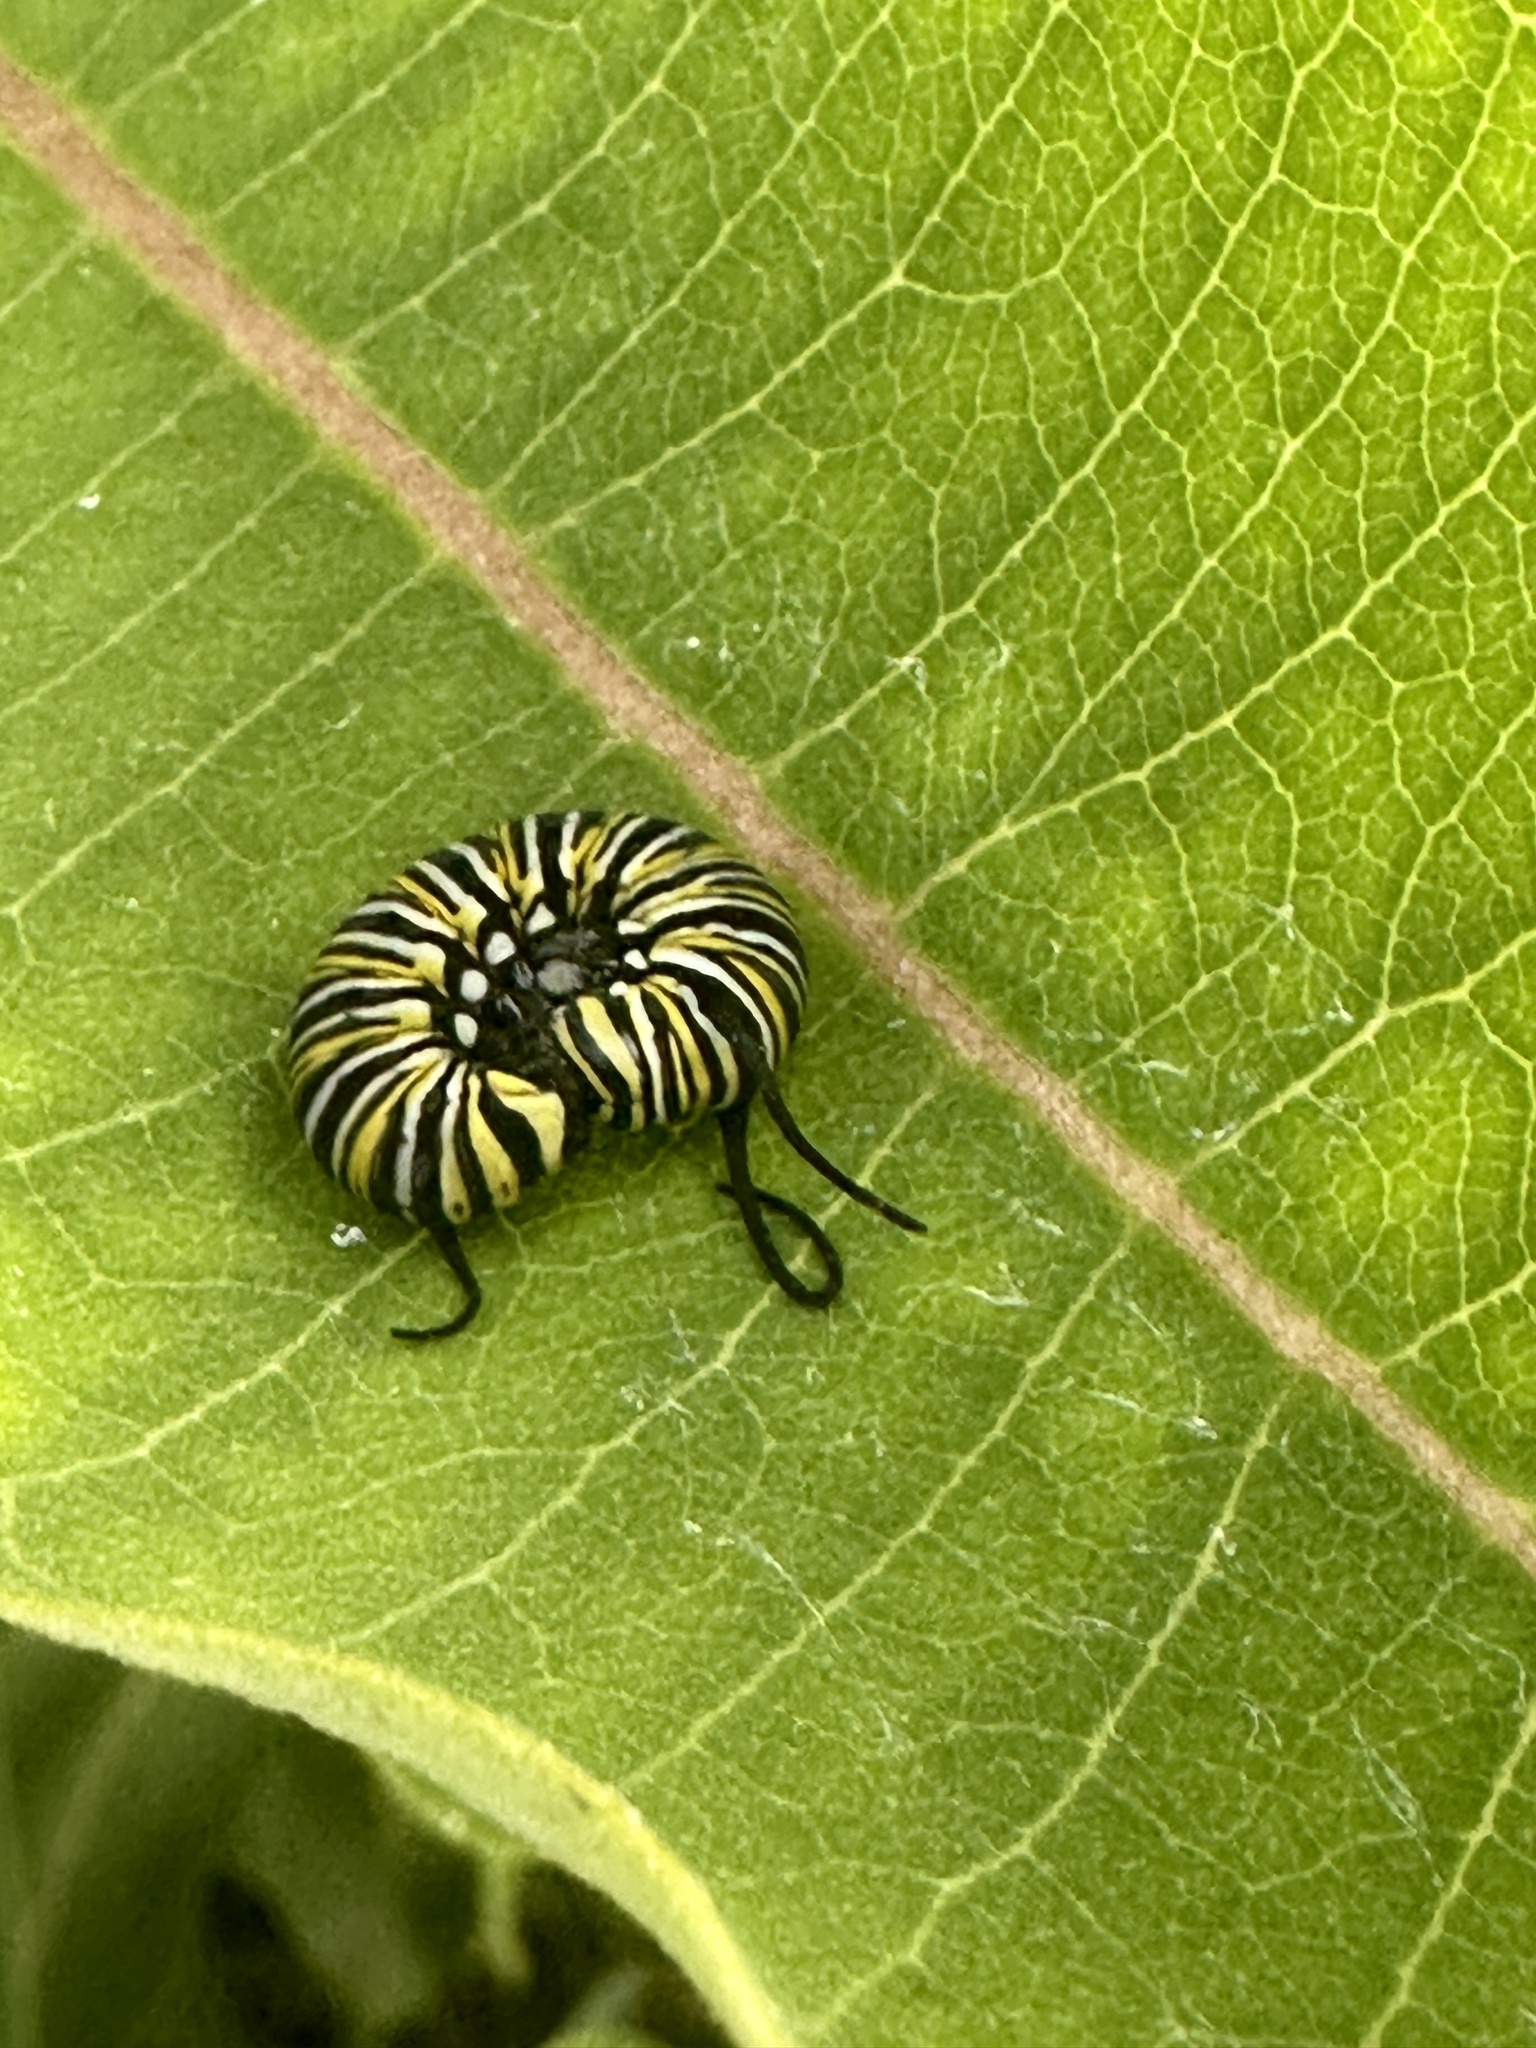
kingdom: Animalia
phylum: Arthropoda
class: Insecta
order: Lepidoptera
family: Nymphalidae
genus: Danaus
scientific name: Danaus plexippus
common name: Monarch
